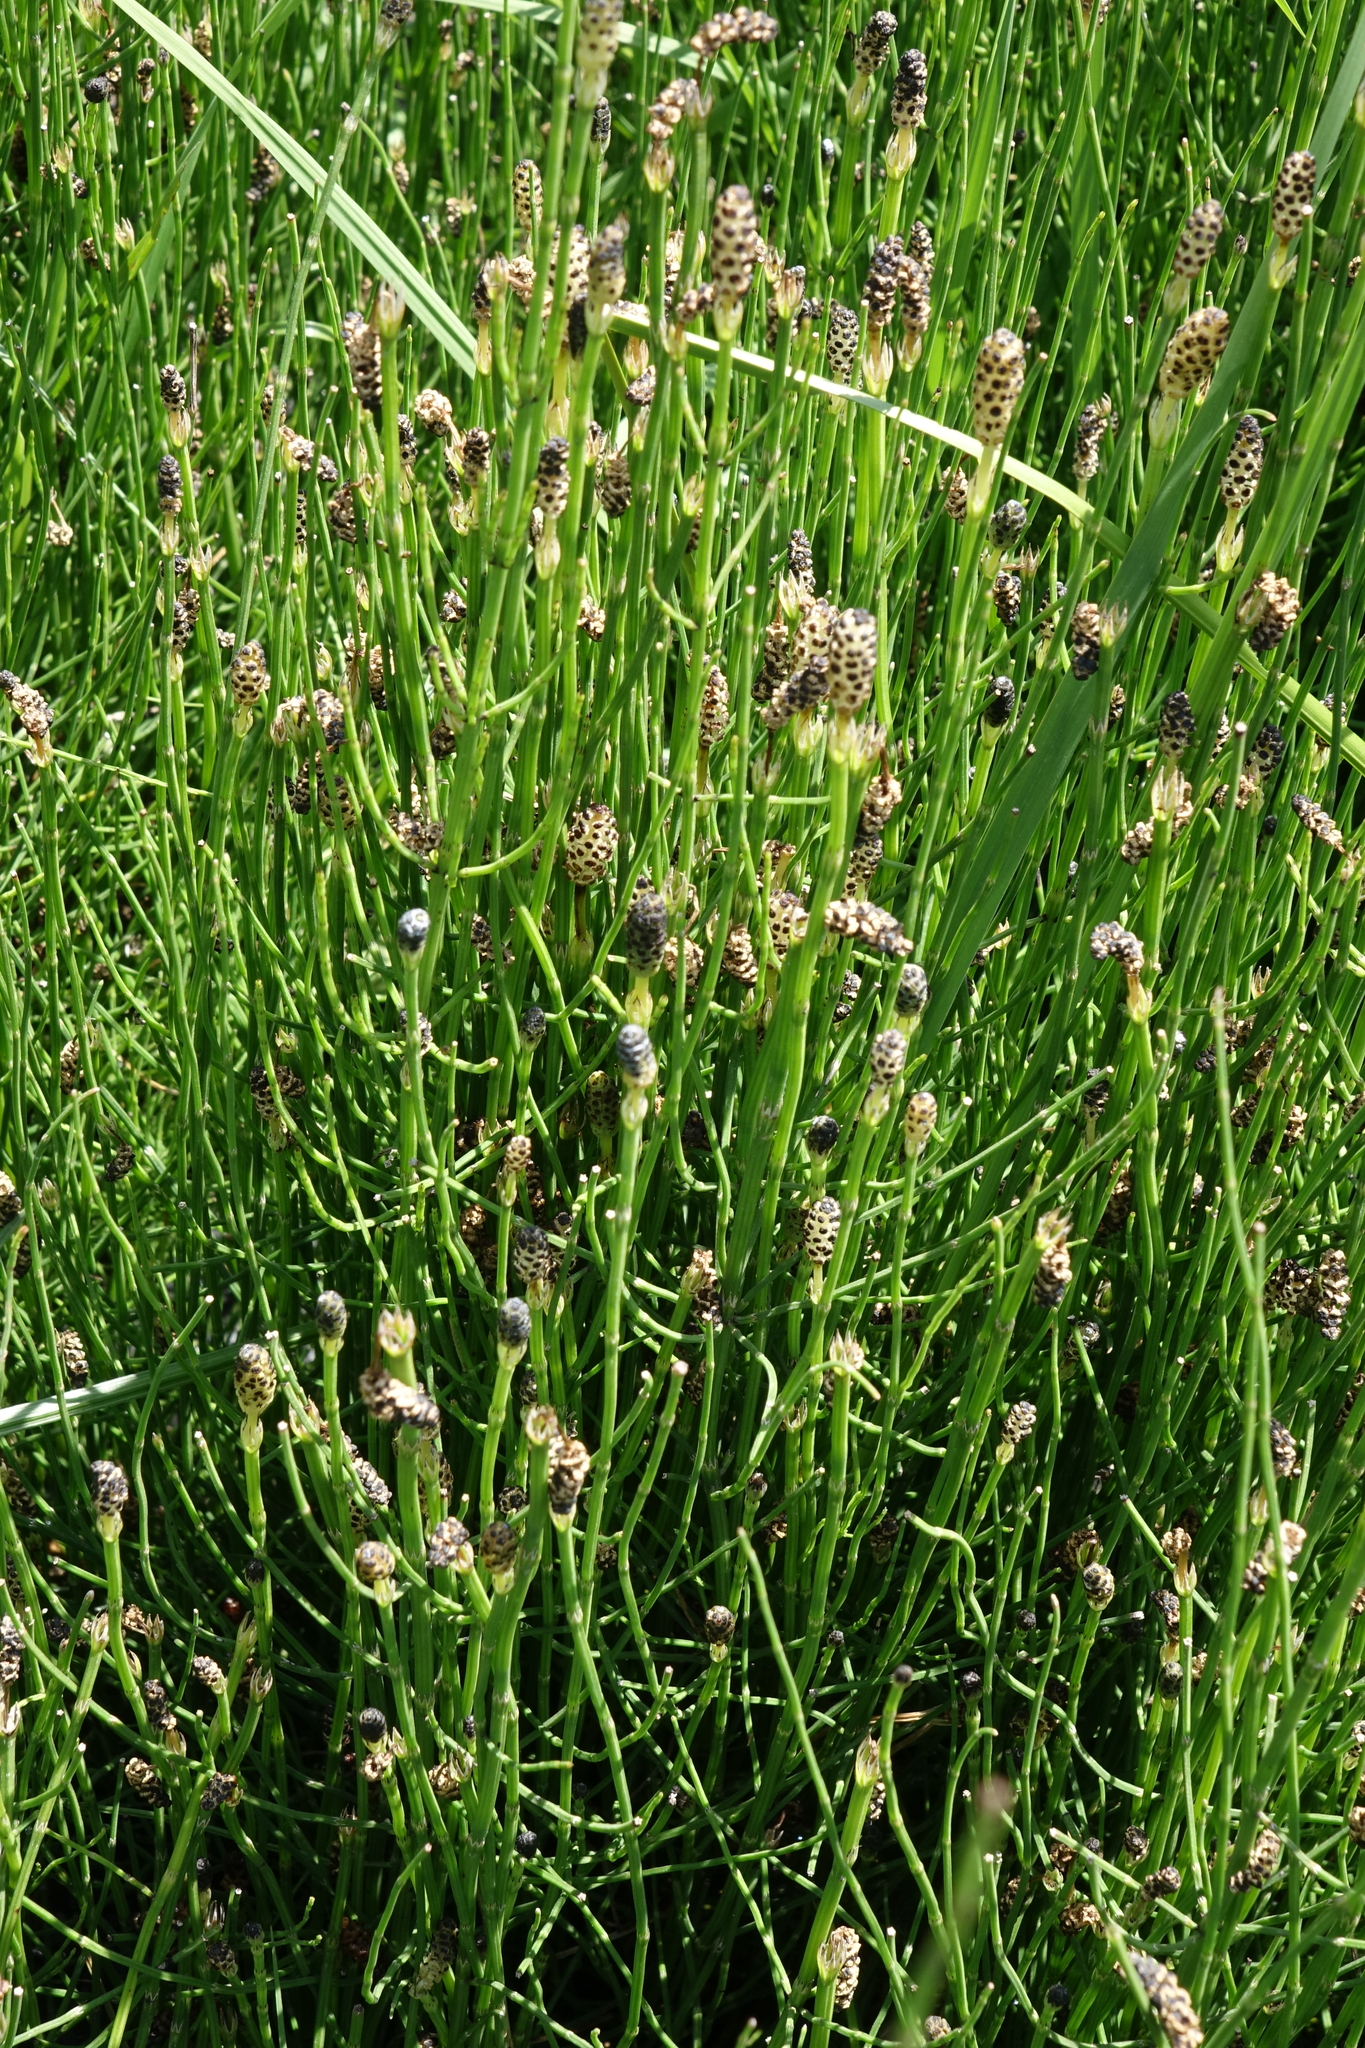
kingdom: Plantae
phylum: Tracheophyta
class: Polypodiopsida
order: Equisetales
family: Equisetaceae
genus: Equisetum
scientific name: Equisetum palustre
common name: Marsh horsetail
